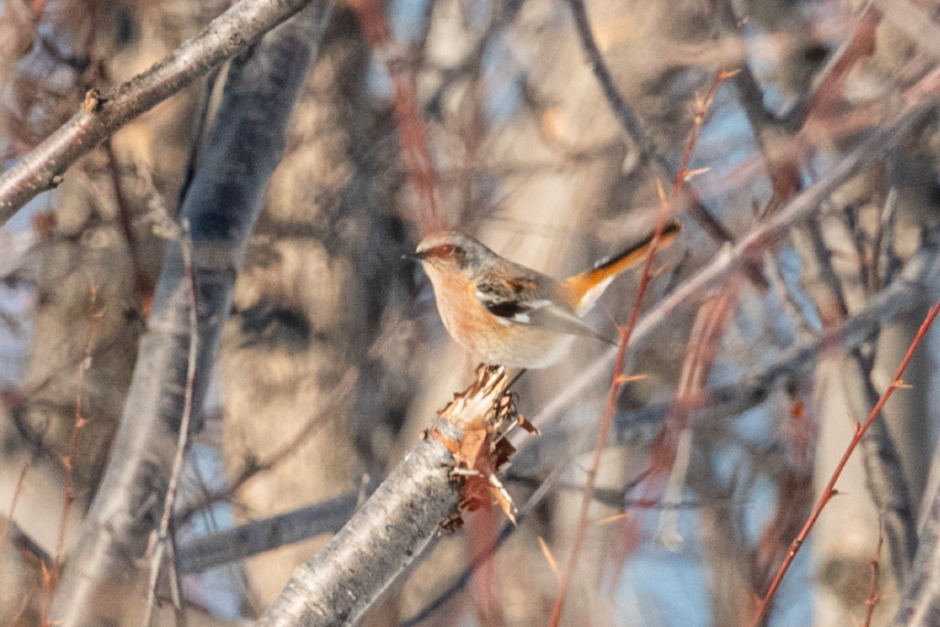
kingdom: Animalia
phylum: Chordata
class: Aves
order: Passeriformes
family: Muscicapidae
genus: Phoenicurus
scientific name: Phoenicurus erythronotus
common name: Eversmann's redstart
